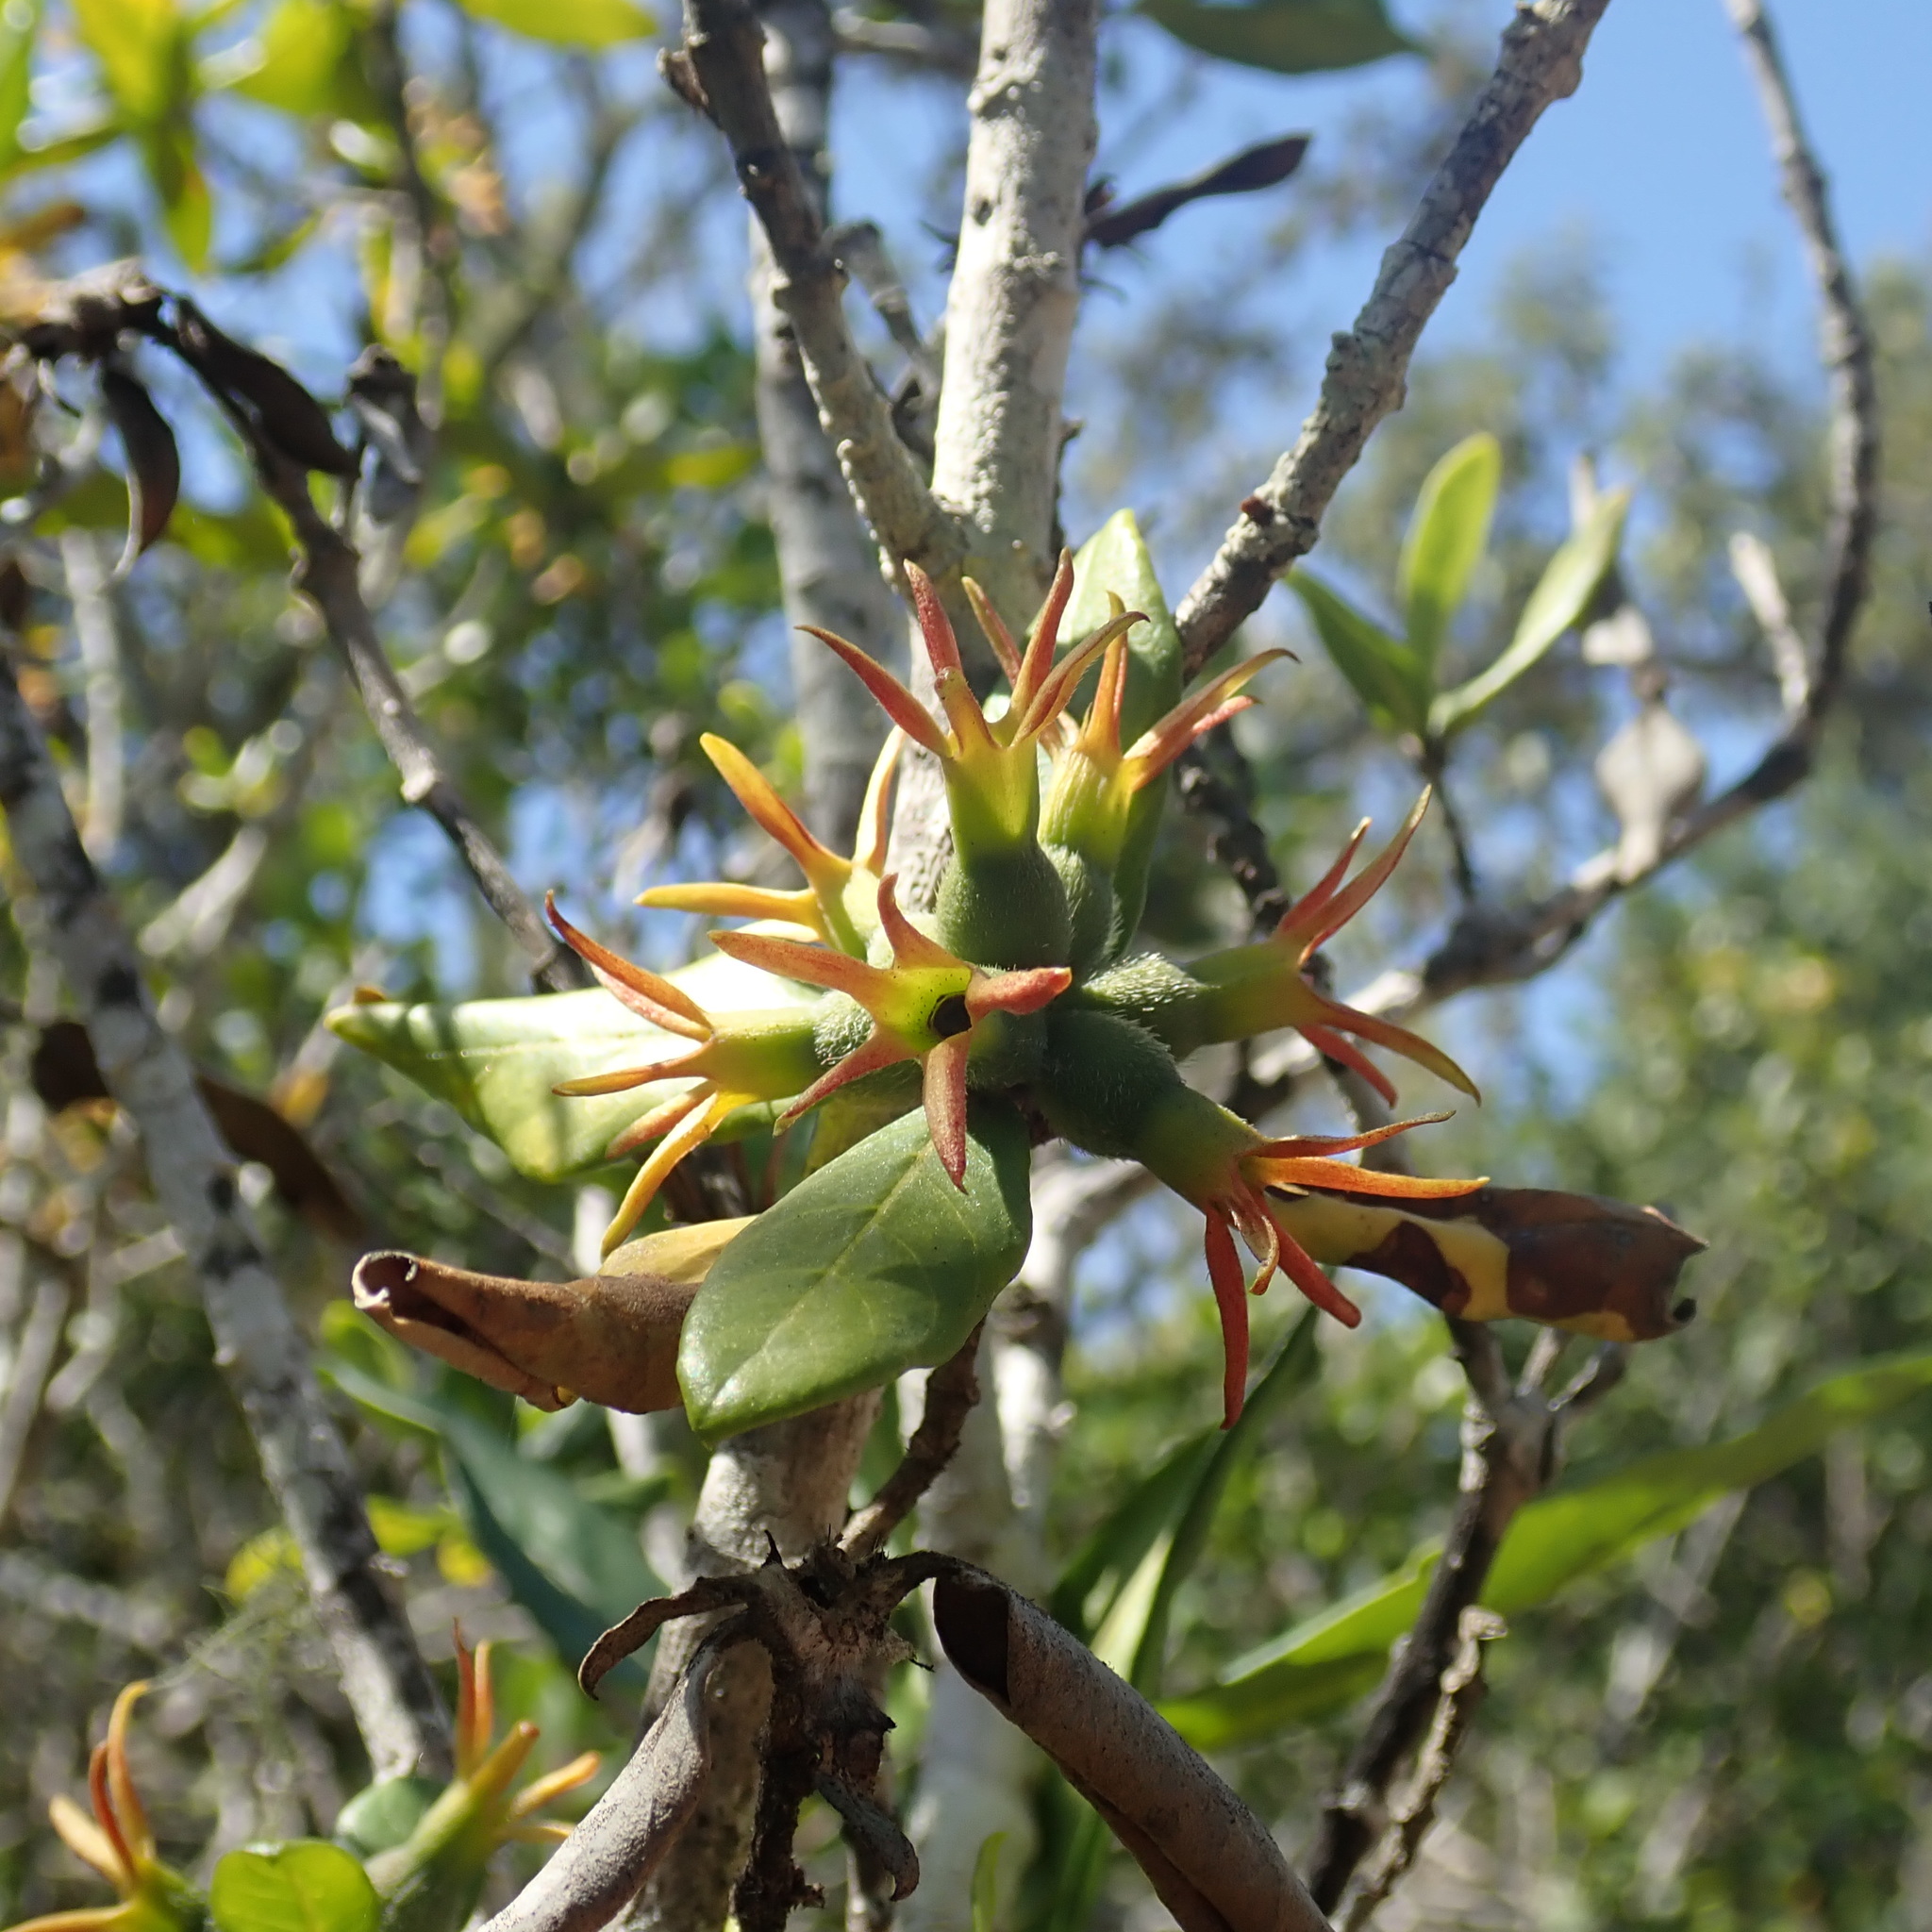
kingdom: Plantae
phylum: Tracheophyta
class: Magnoliopsida
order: Gentianales
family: Rubiaceae
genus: Burchellia
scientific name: Burchellia bubalina
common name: Wild pomegranate
